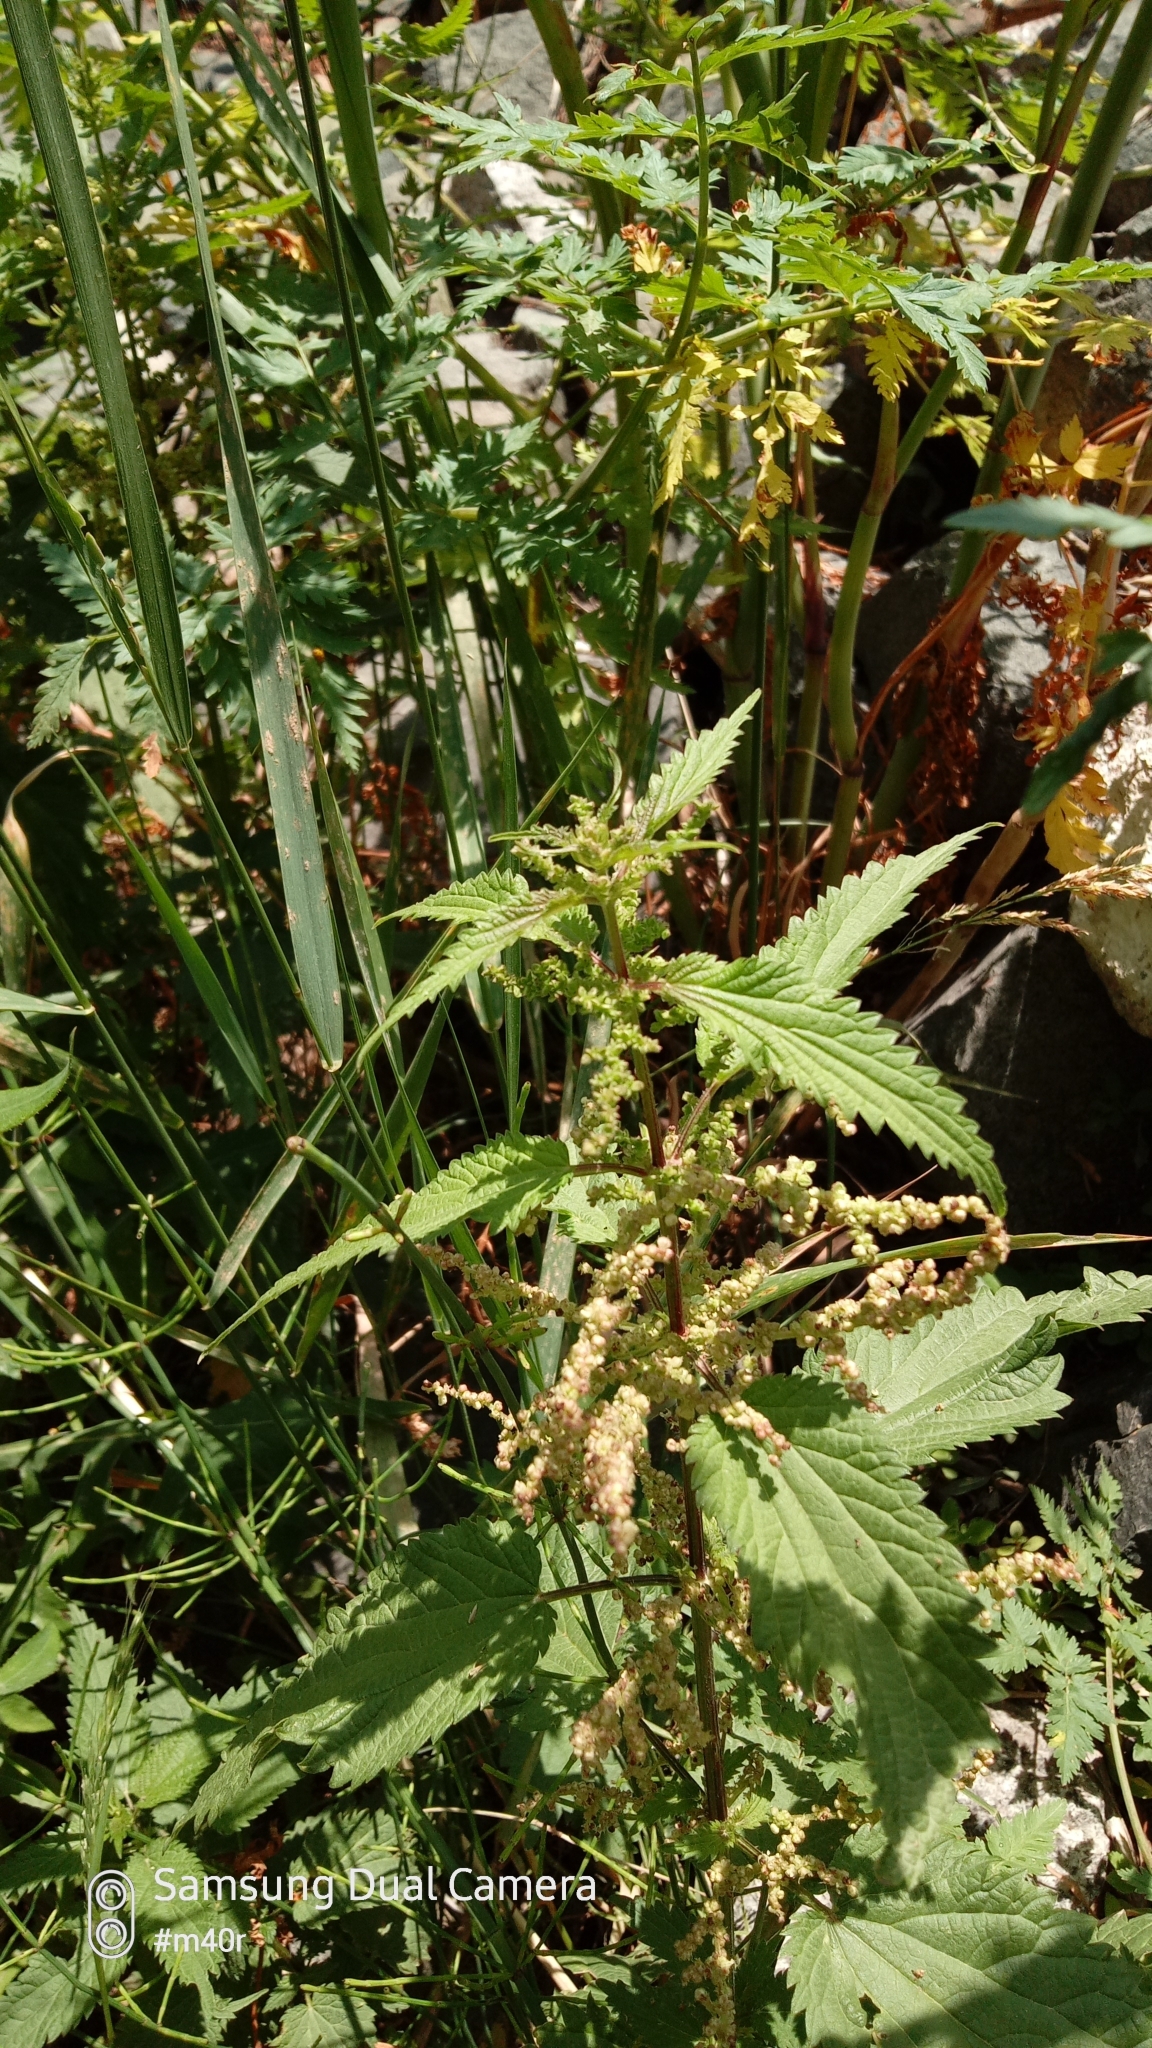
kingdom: Plantae
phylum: Tracheophyta
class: Magnoliopsida
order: Rosales
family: Urticaceae
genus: Urtica
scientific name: Urtica dioica
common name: Common nettle
